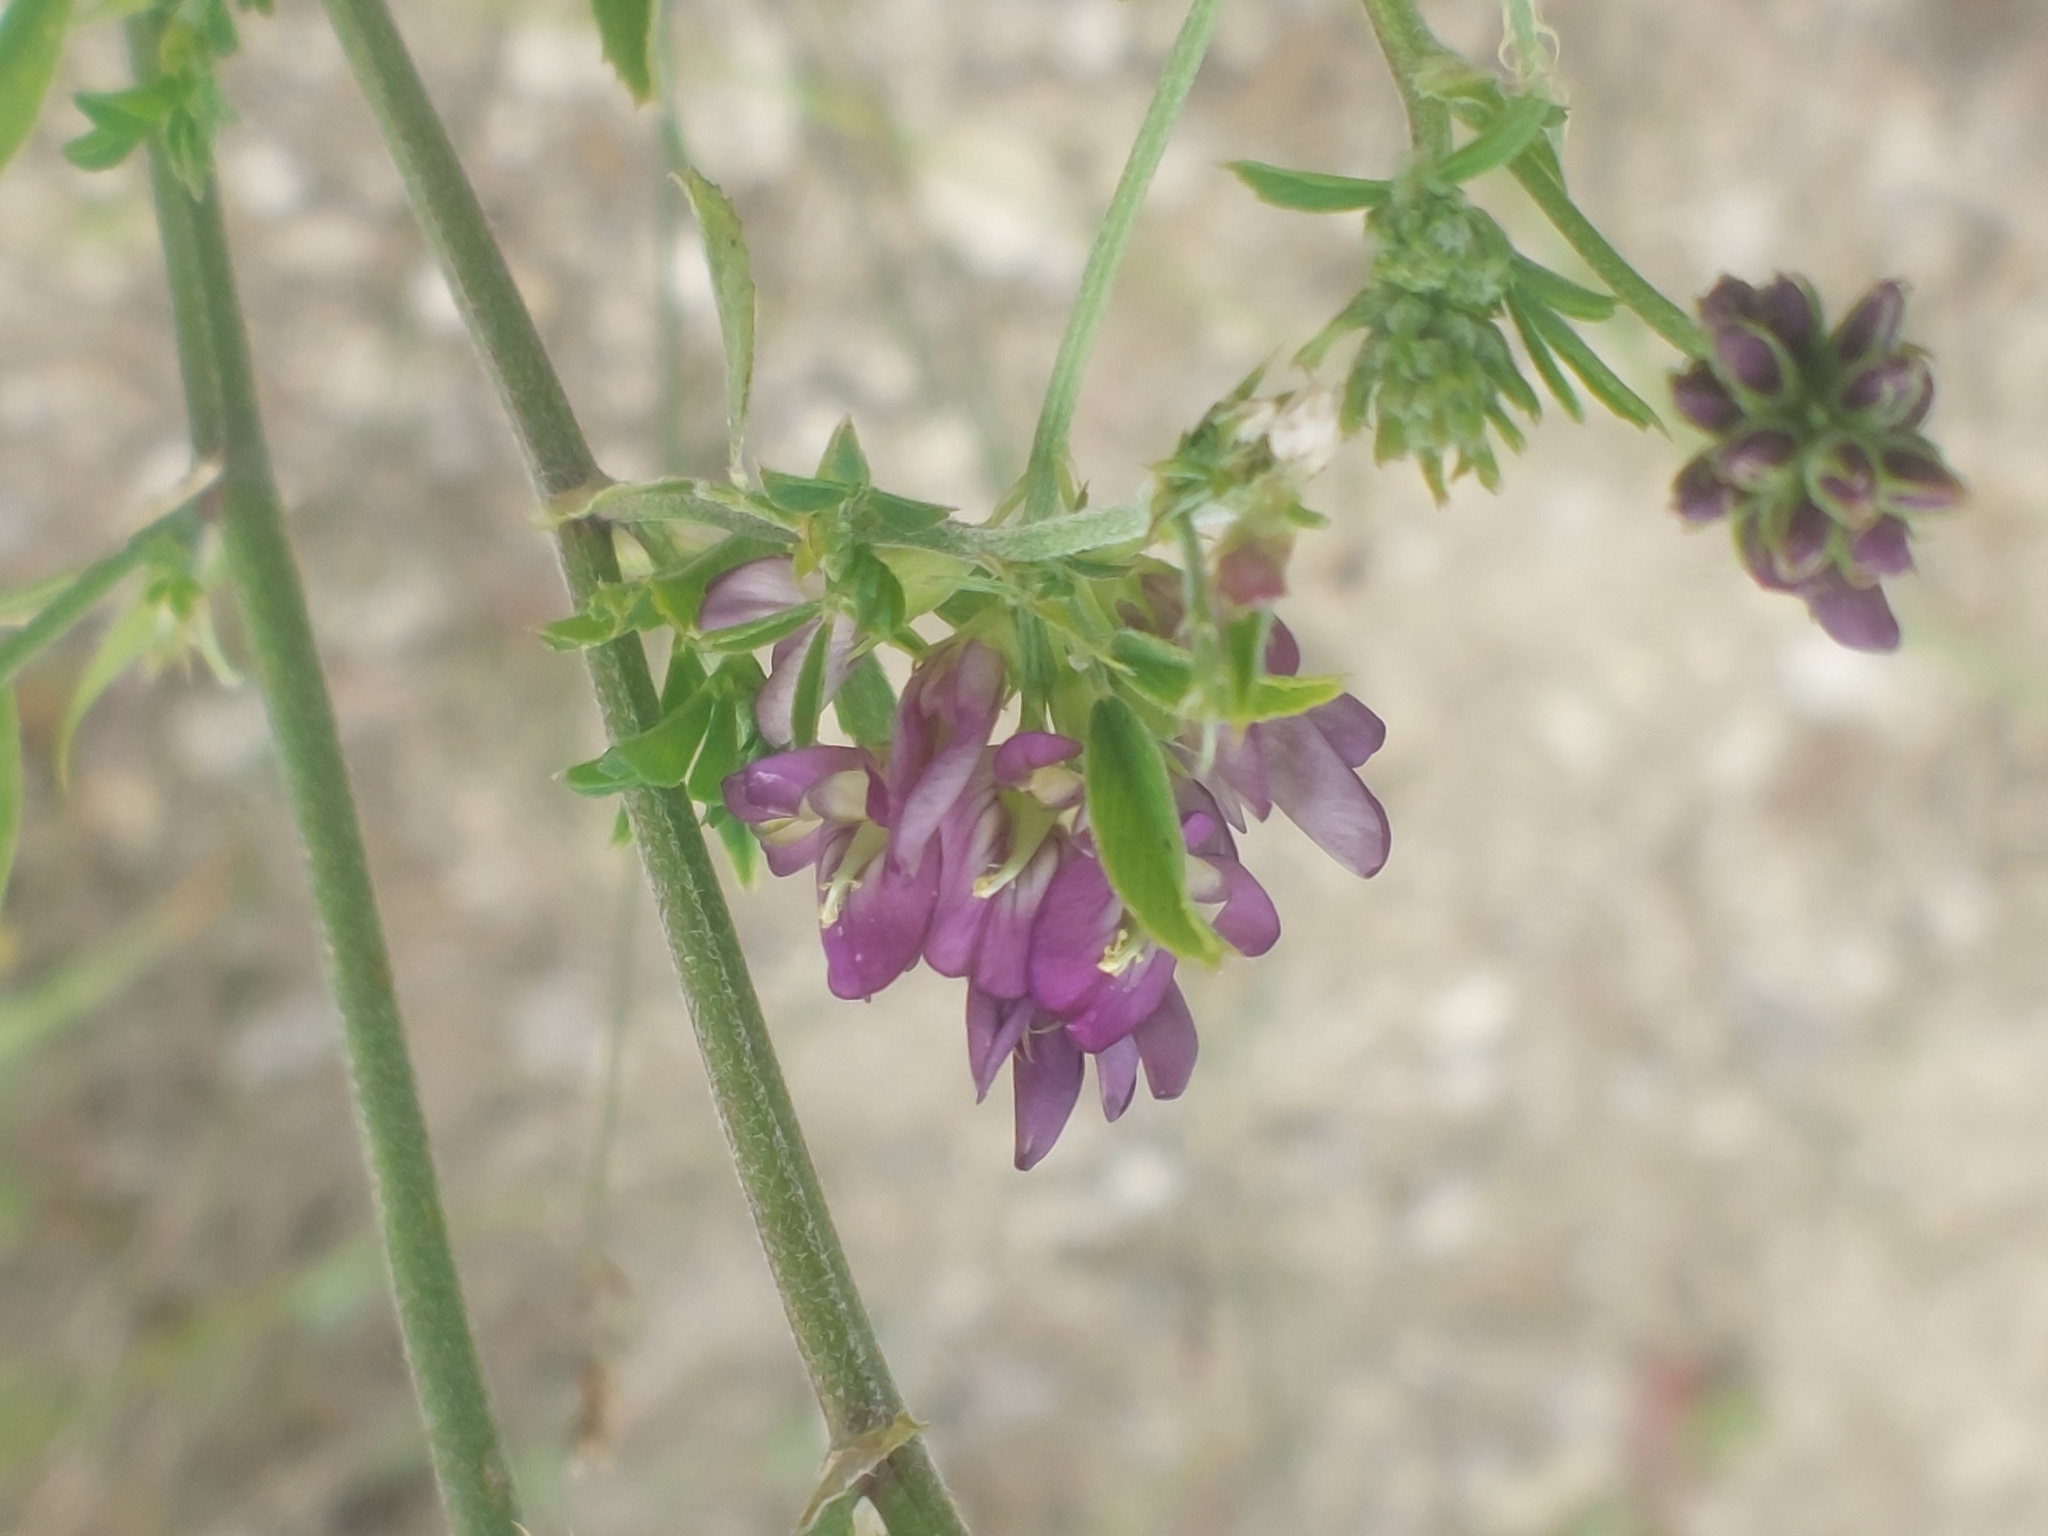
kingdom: Plantae
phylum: Tracheophyta
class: Magnoliopsida
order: Fabales
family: Fabaceae
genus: Medicago
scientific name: Medicago sativa
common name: Alfalfa
